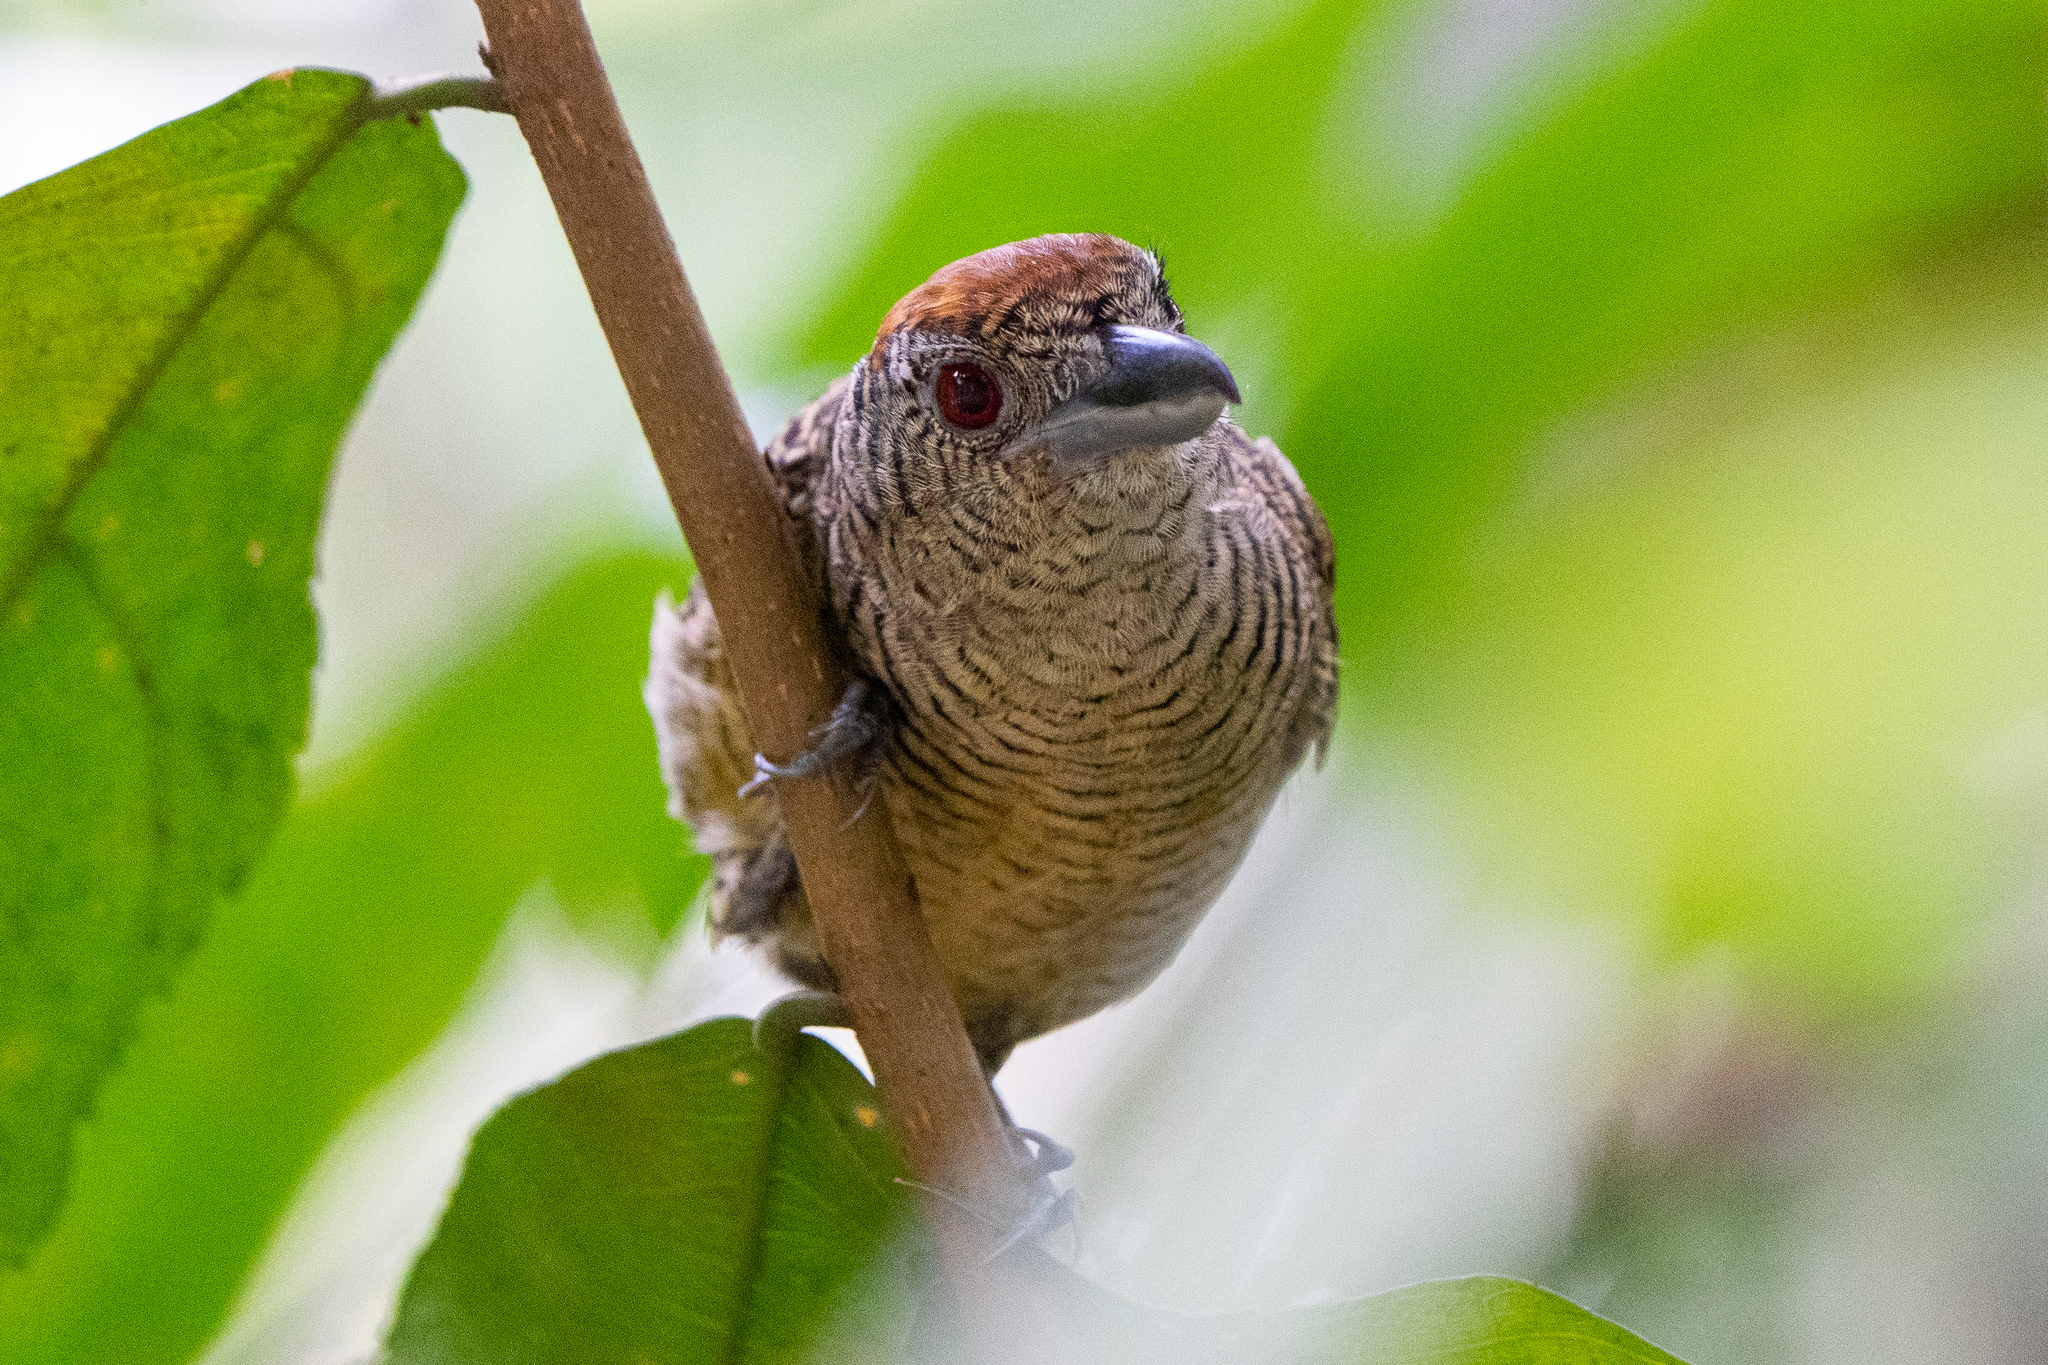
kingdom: Animalia
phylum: Chordata
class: Aves
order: Passeriformes
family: Thamnophilidae
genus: Cymbilaimus
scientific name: Cymbilaimus lineatus
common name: Fasciated antshrike
